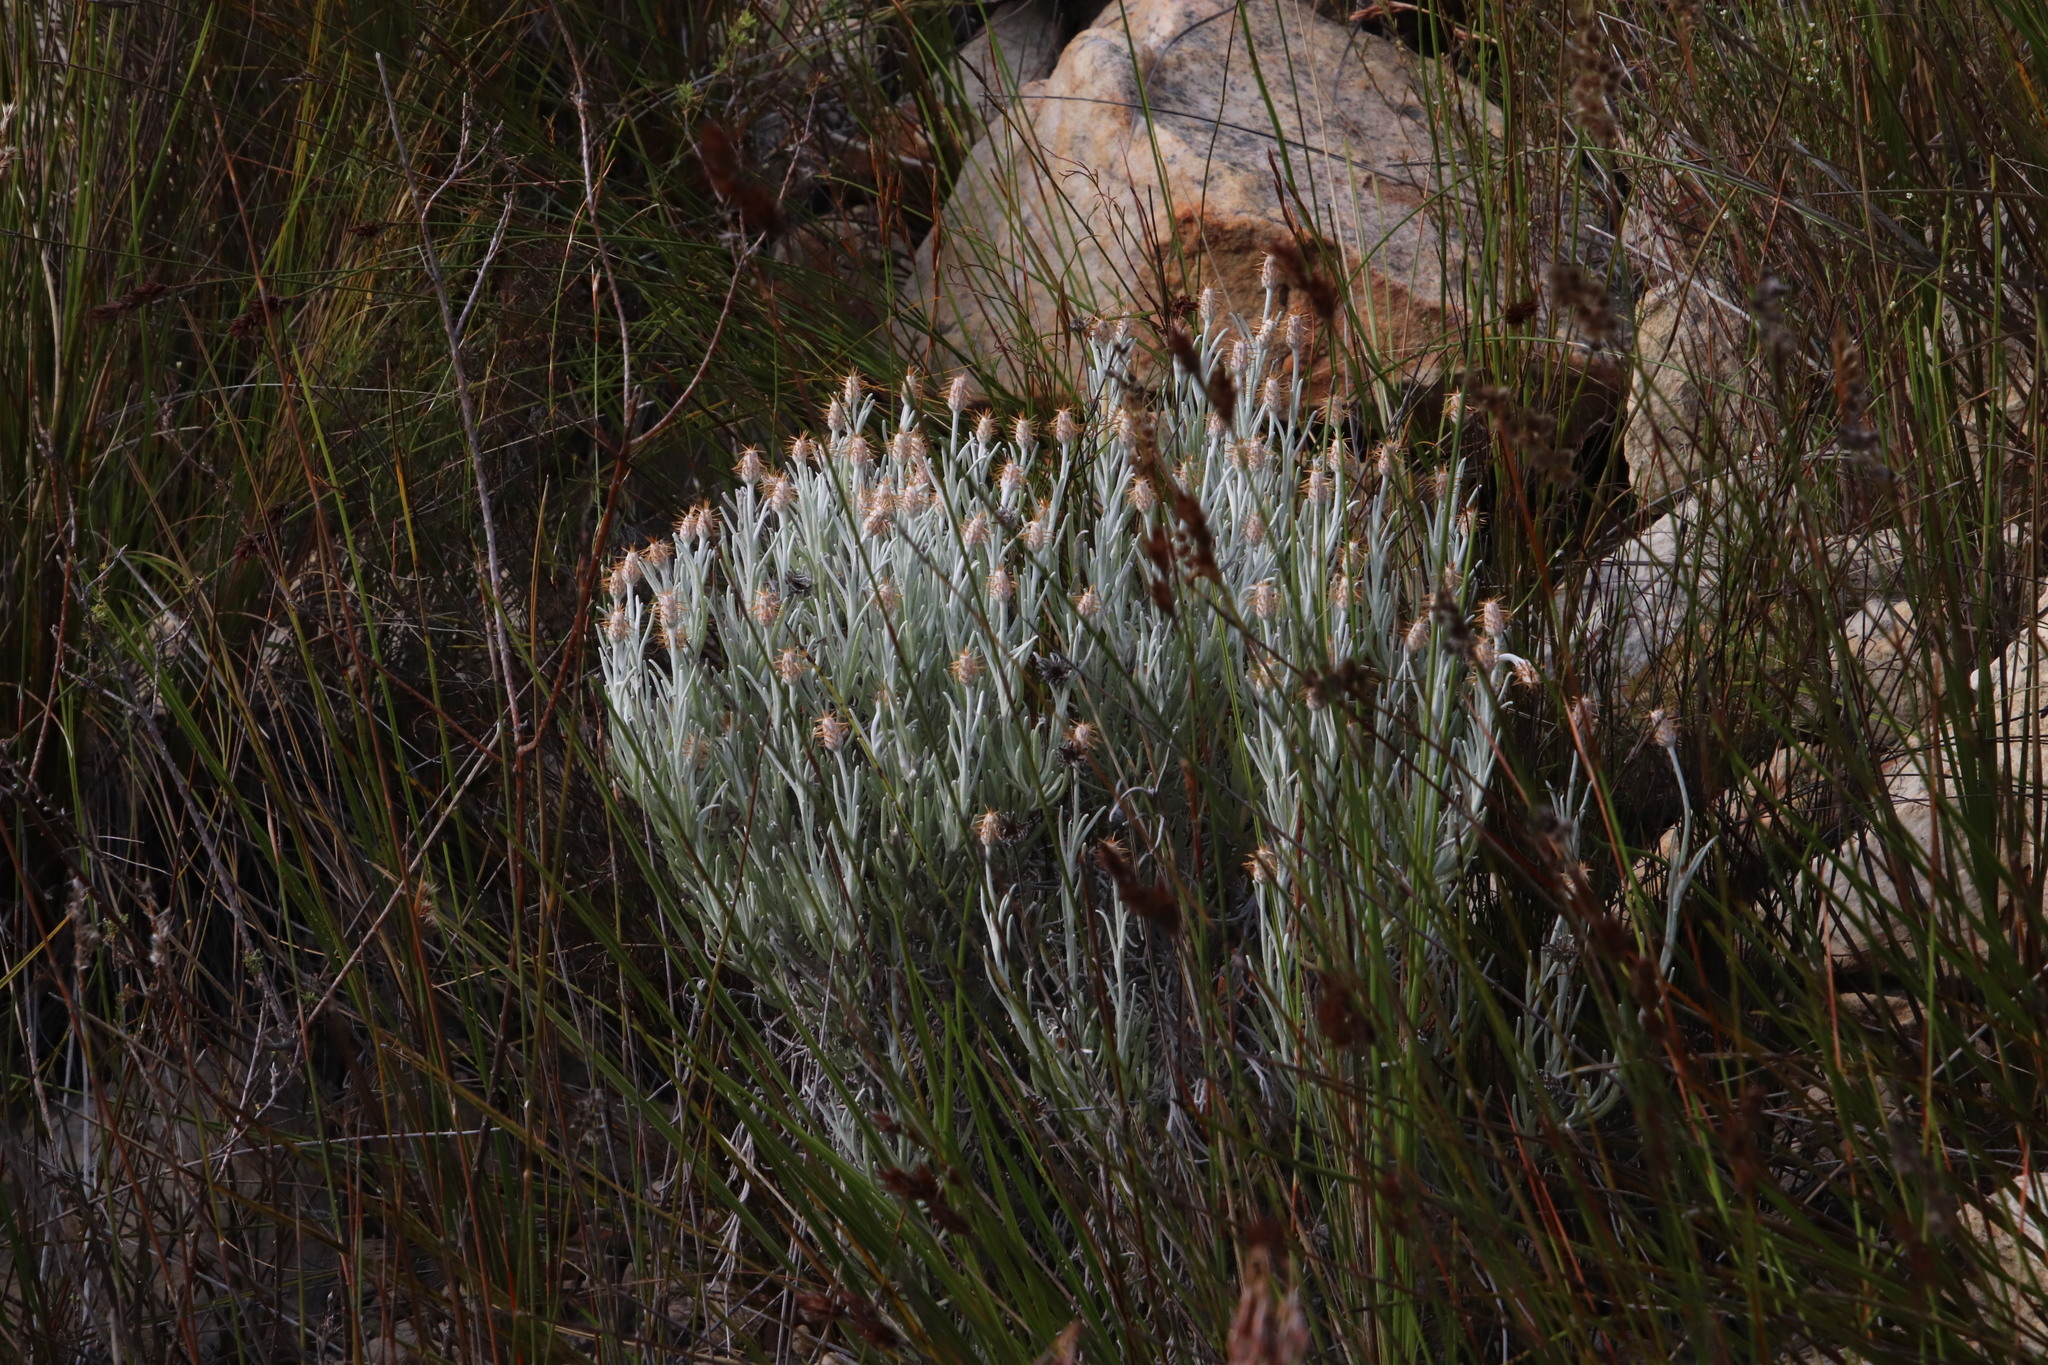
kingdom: Plantae
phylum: Tracheophyta
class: Magnoliopsida
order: Asterales
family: Asteraceae
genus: Syncarpha
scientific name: Syncarpha gnaphaloides
